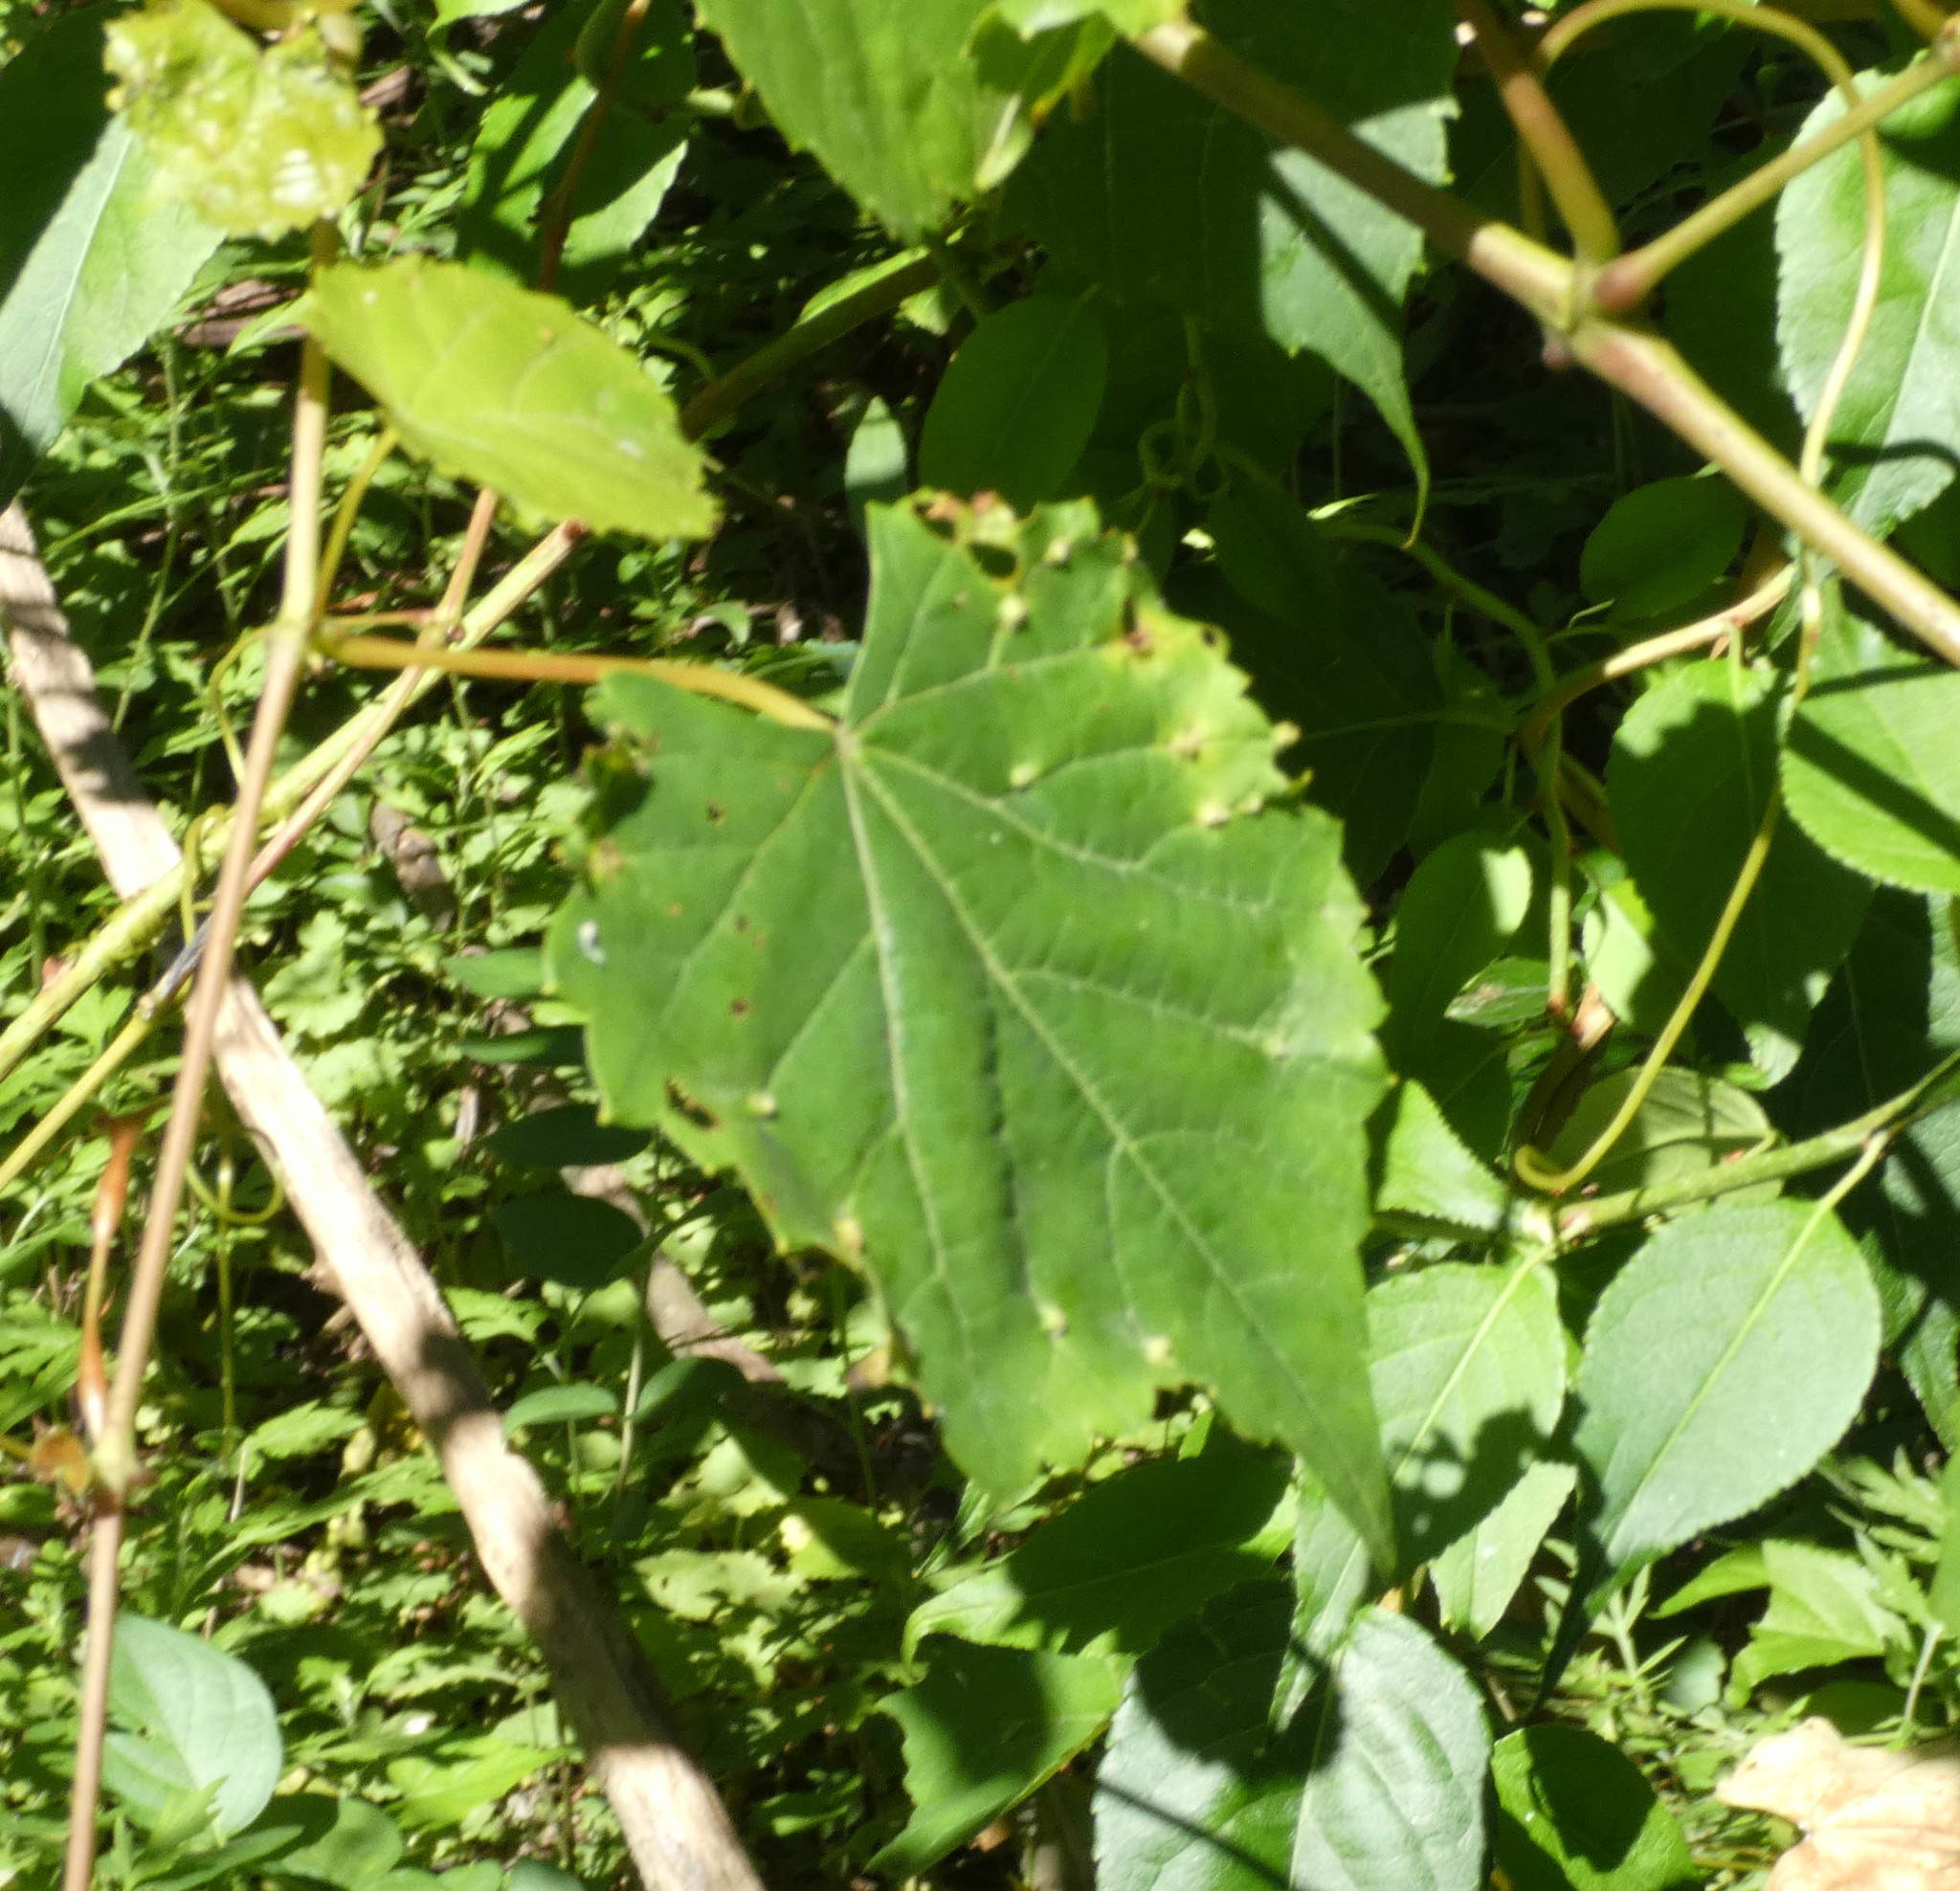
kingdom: Animalia
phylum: Arthropoda
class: Insecta
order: Hemiptera
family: Phylloxeridae
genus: Daktulosphaira
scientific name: Daktulosphaira vitifoliae
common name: Grape phylloxera
